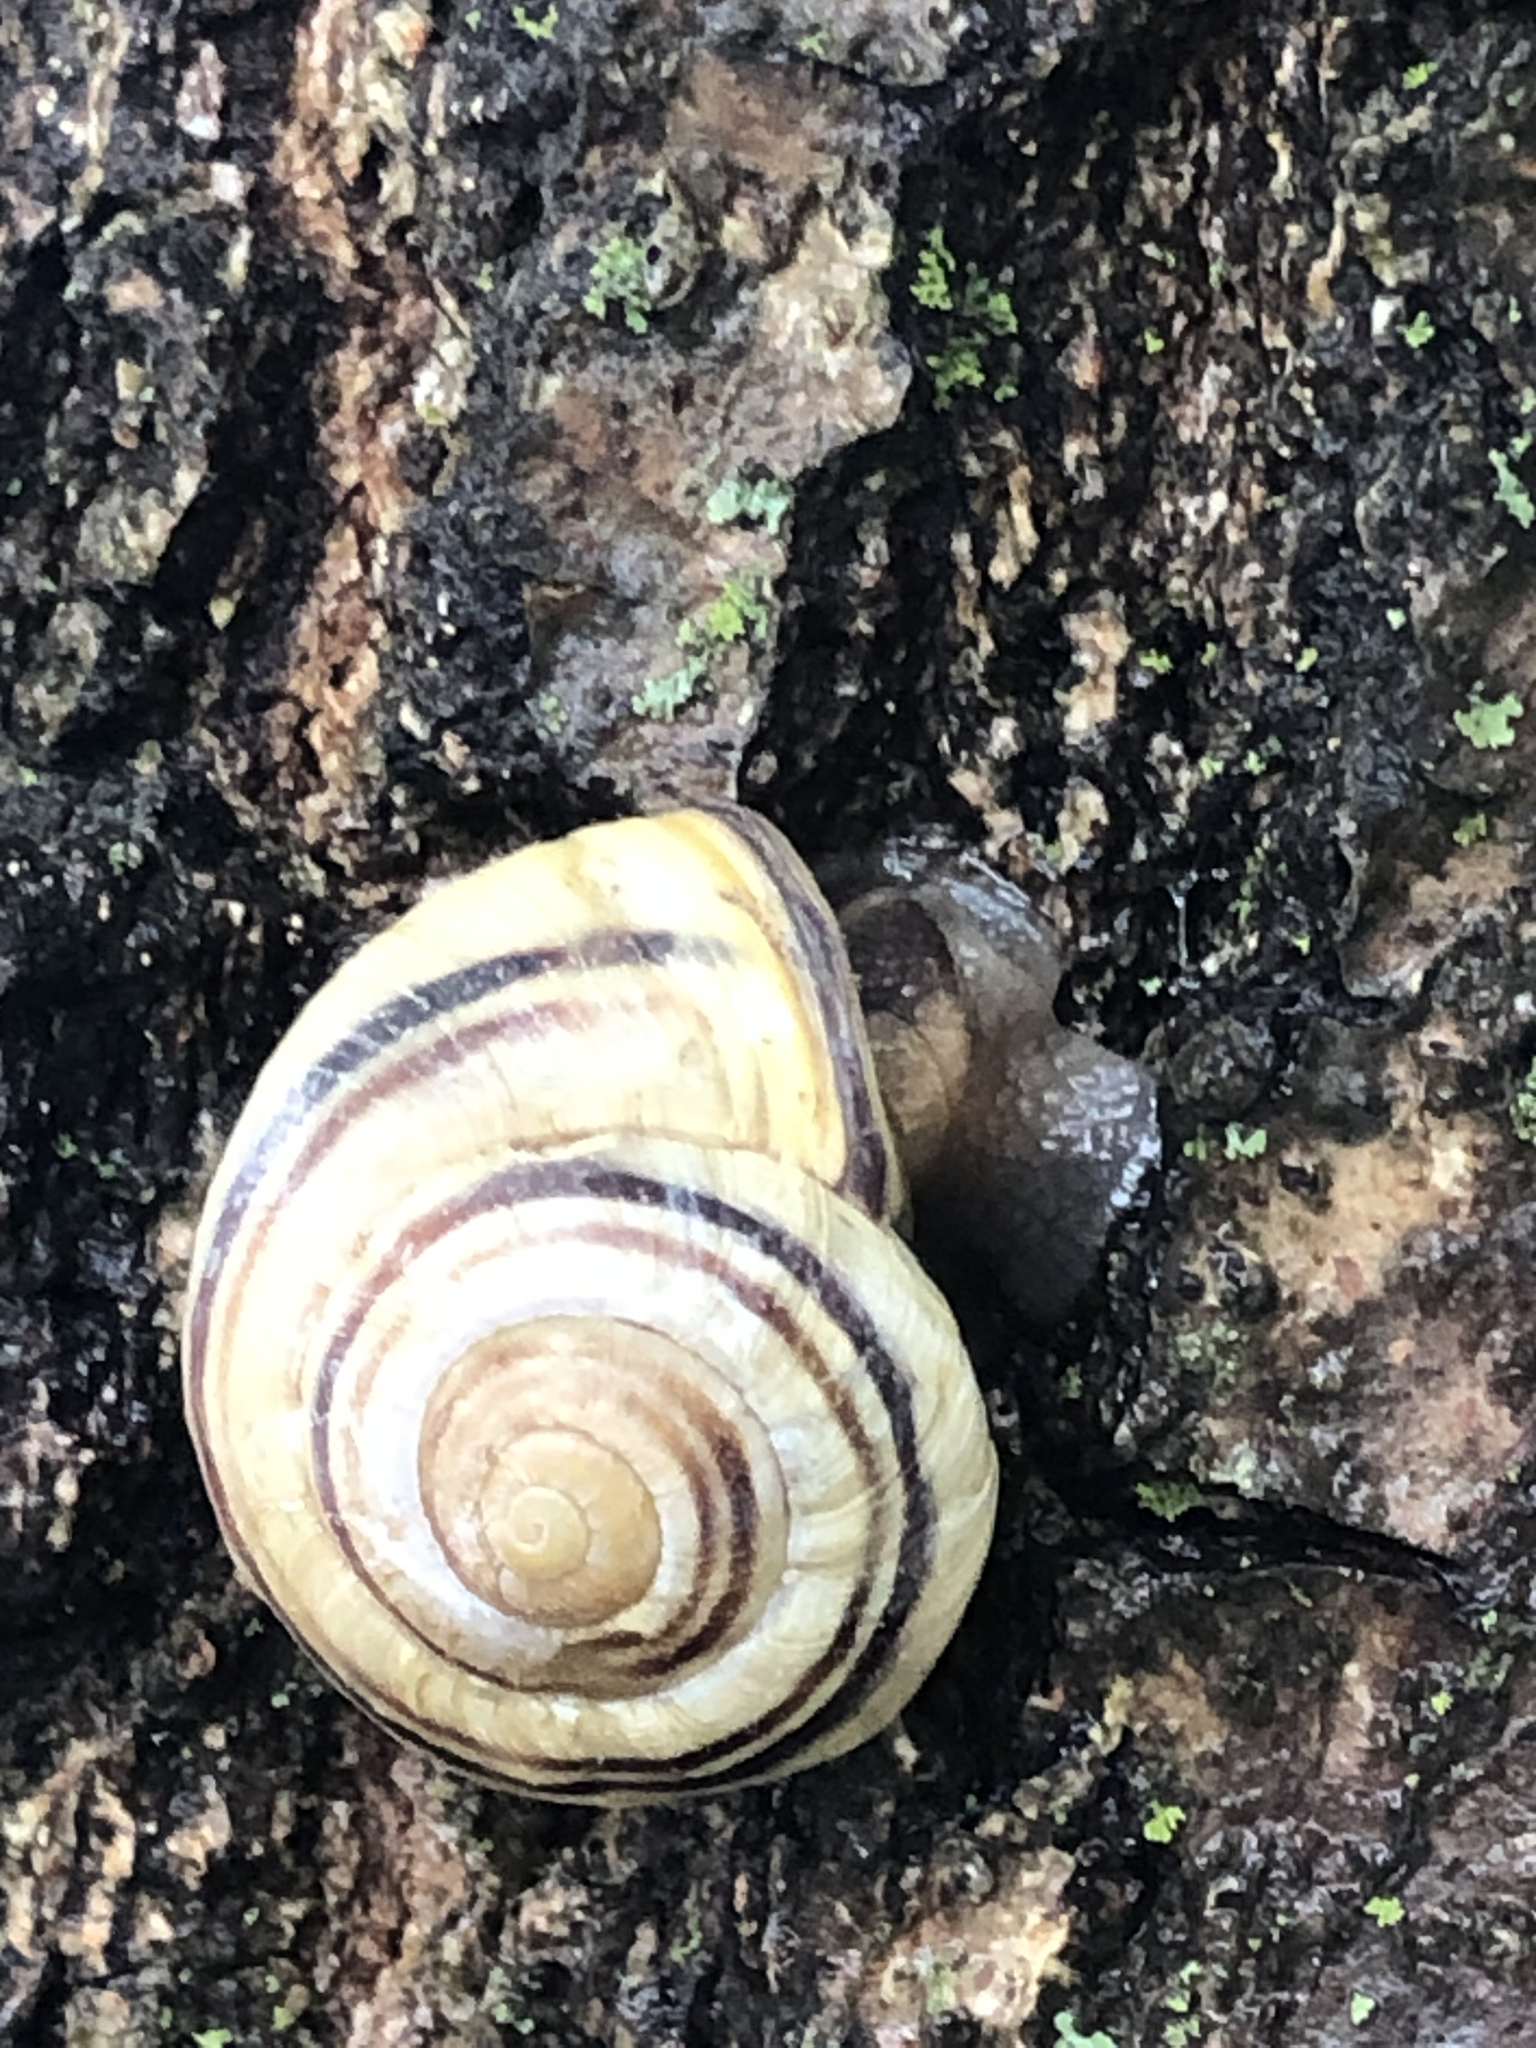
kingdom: Animalia
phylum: Mollusca
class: Gastropoda
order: Stylommatophora
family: Helicidae
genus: Cepaea
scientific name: Cepaea nemoralis
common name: Grovesnail
